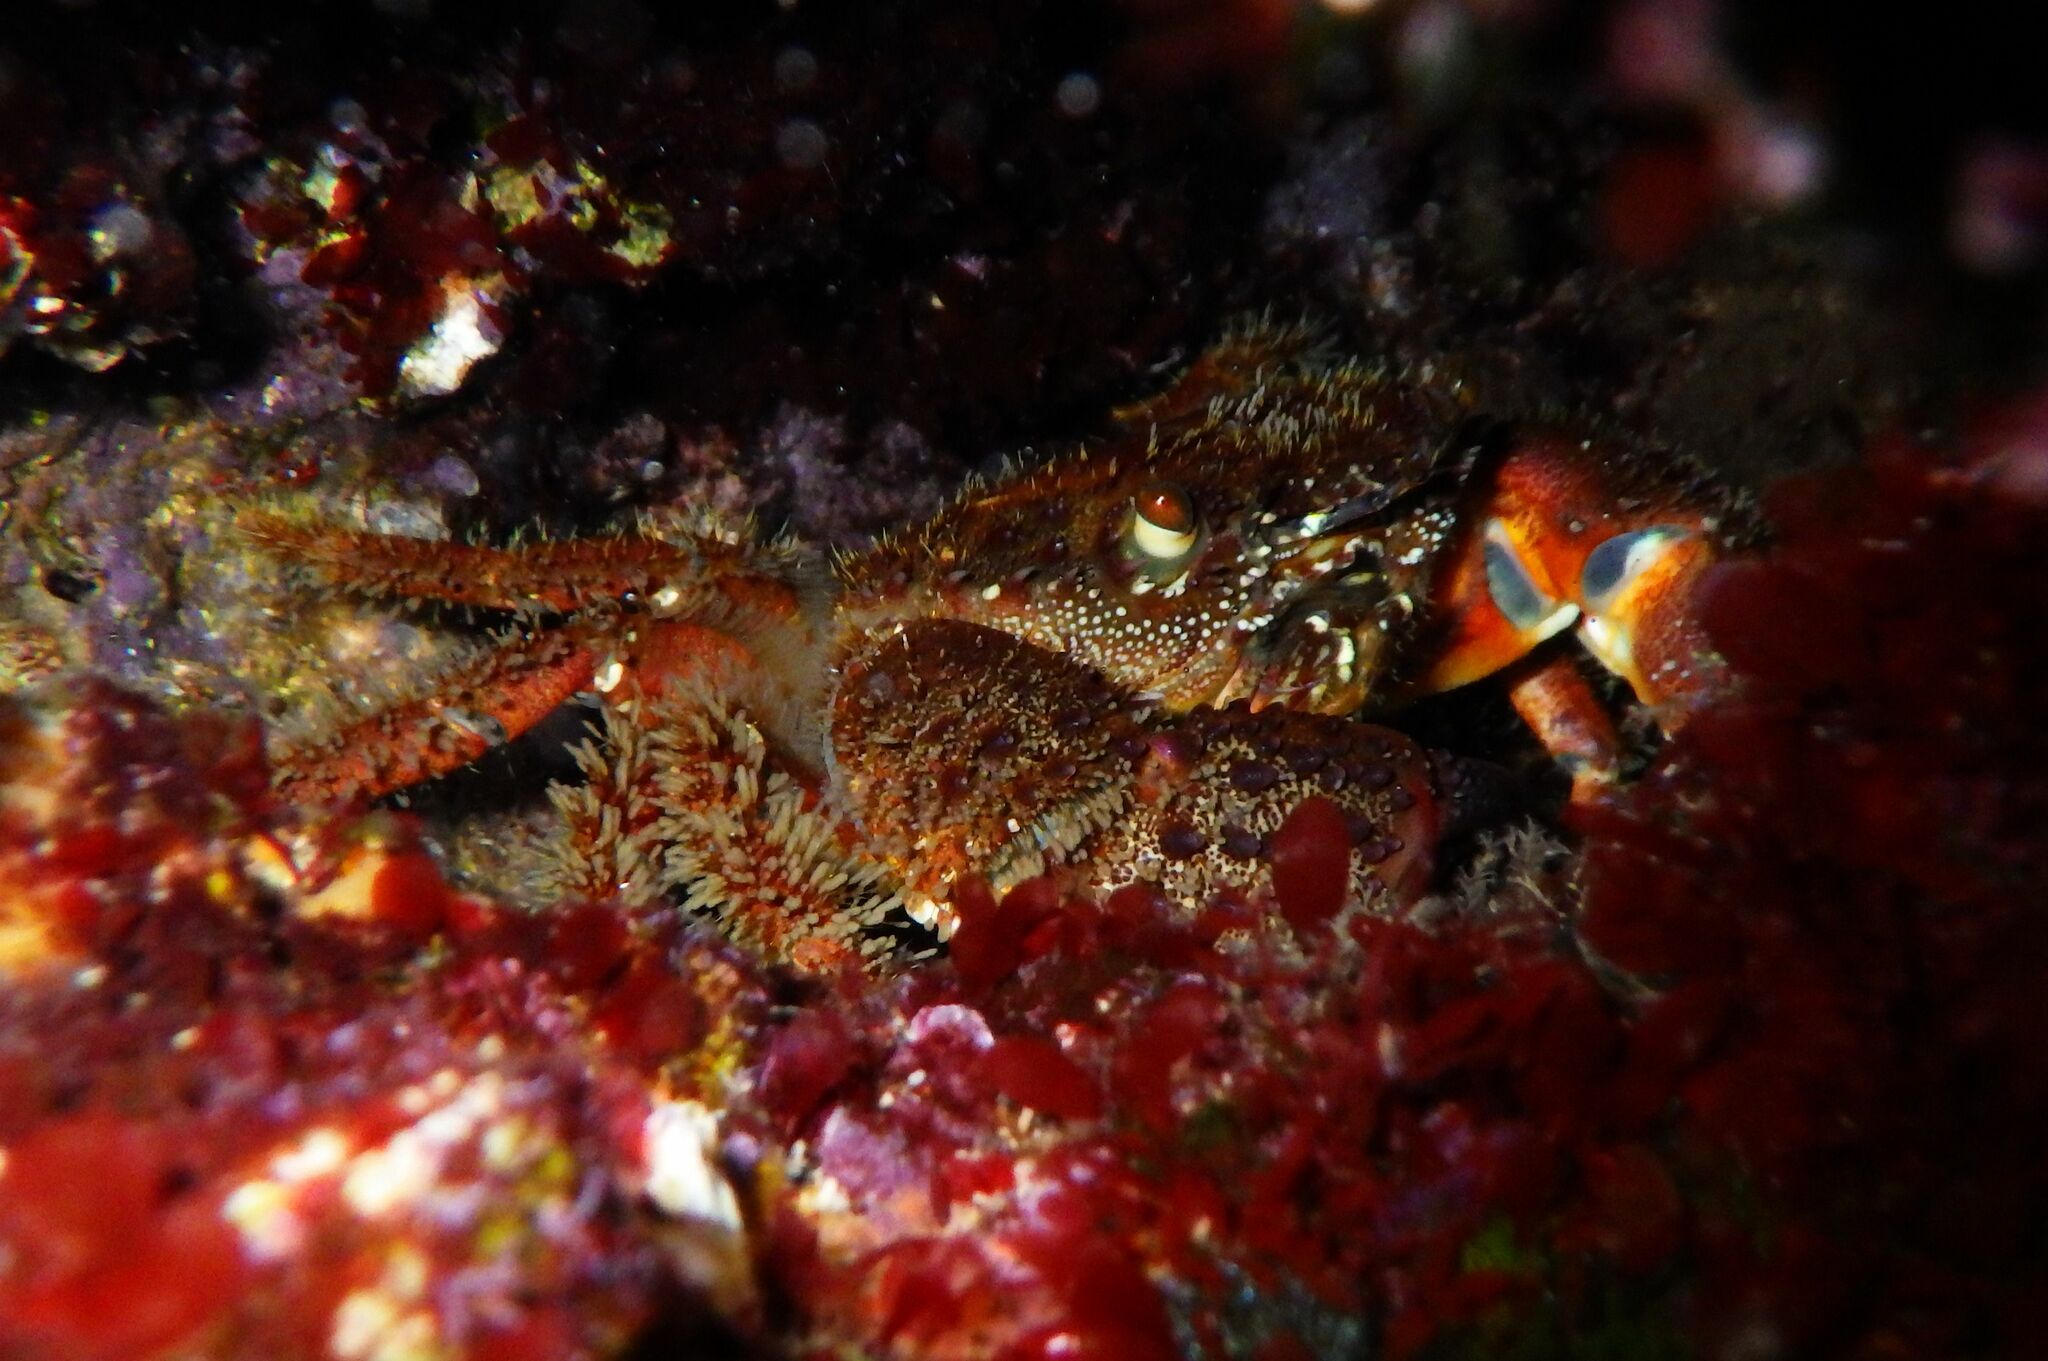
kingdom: Animalia
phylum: Arthropoda
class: Malacostraca
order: Decapoda
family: Eriphiidae
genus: Eriphia
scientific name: Eriphia verrucosa
